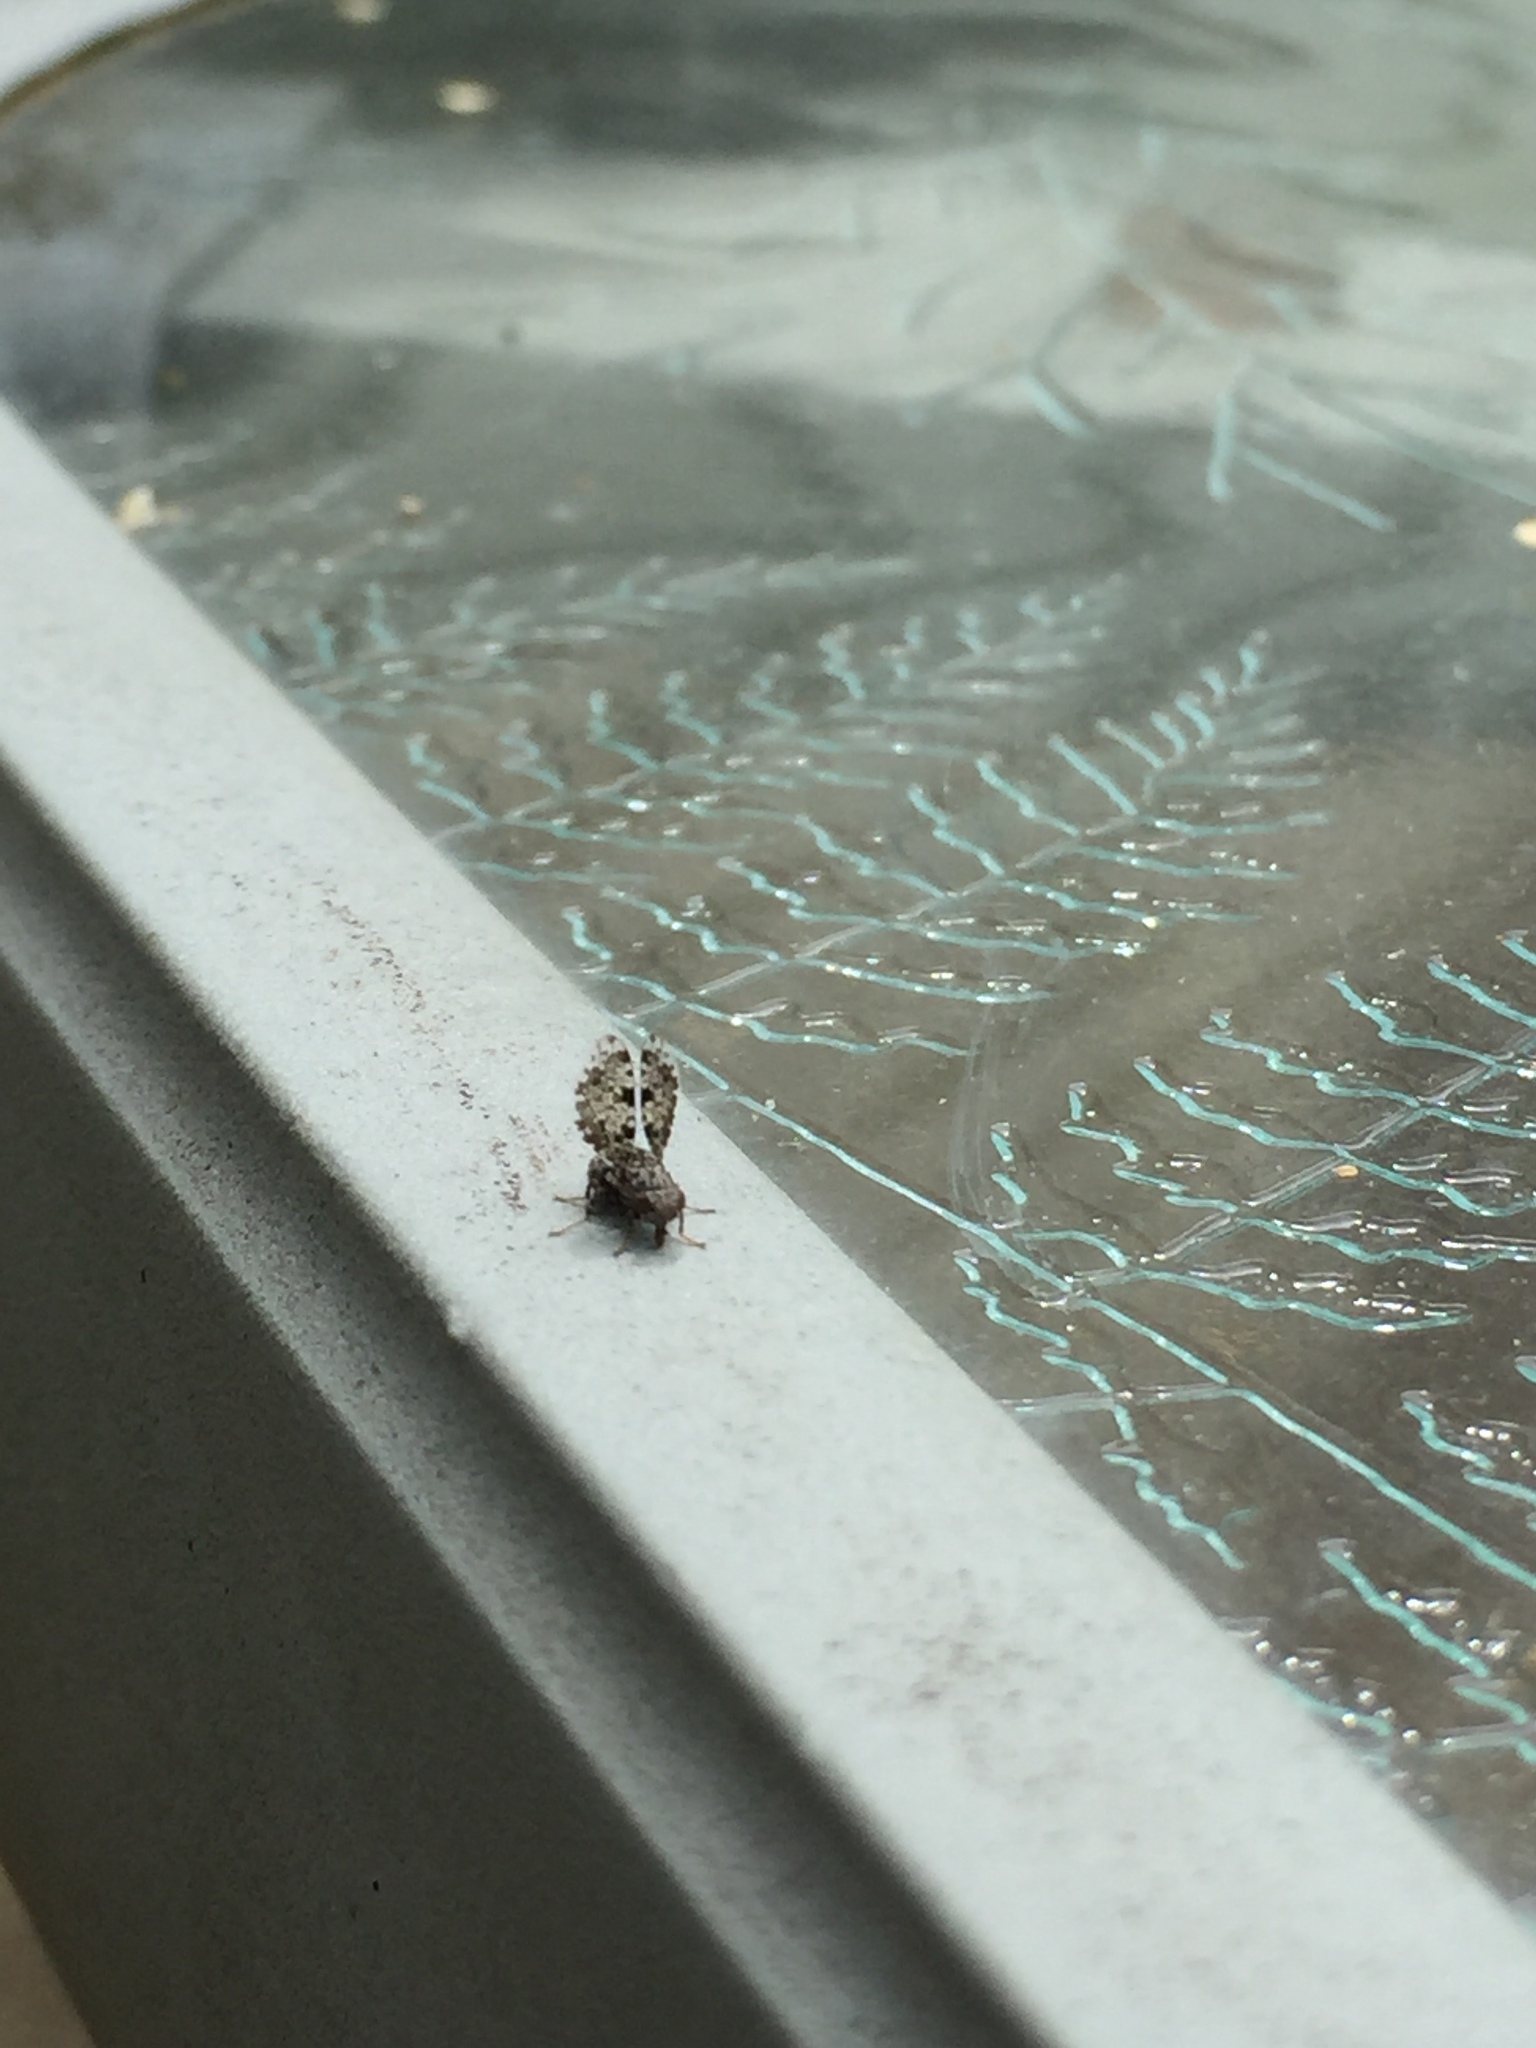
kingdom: Animalia
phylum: Arthropoda
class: Insecta
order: Diptera
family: Ulidiidae
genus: Callopistromyia
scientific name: Callopistromyia annulipes
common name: Peacock fly
